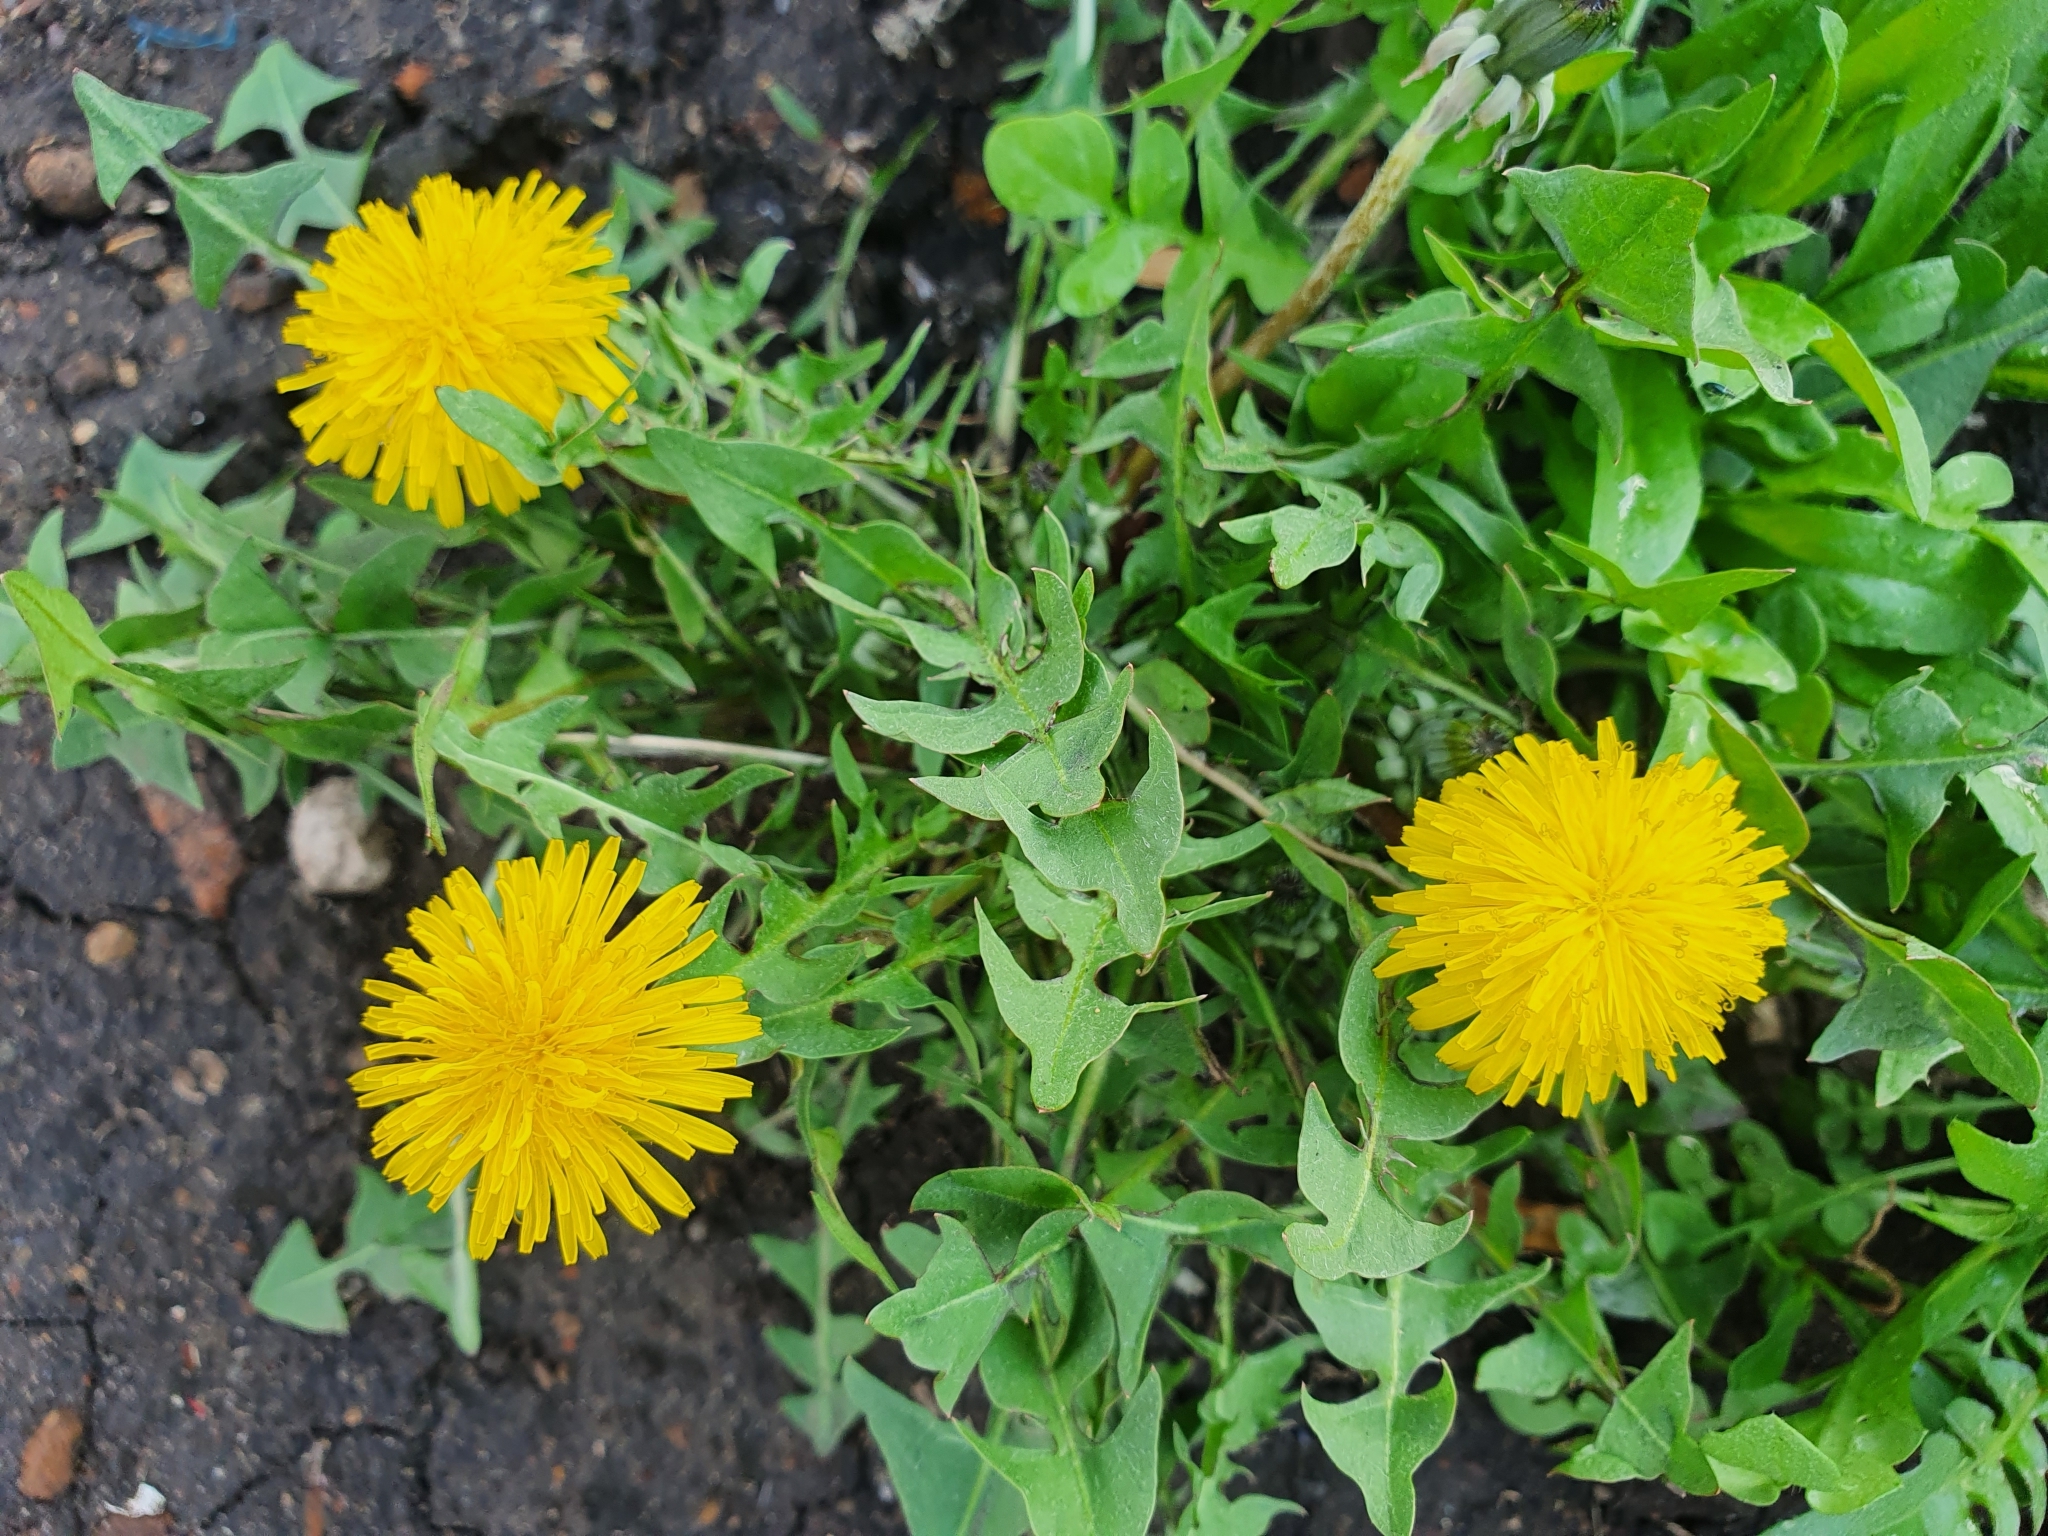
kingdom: Plantae
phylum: Tracheophyta
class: Magnoliopsida
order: Asterales
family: Asteraceae
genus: Taraxacum
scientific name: Taraxacum officinale
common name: Common dandelion
